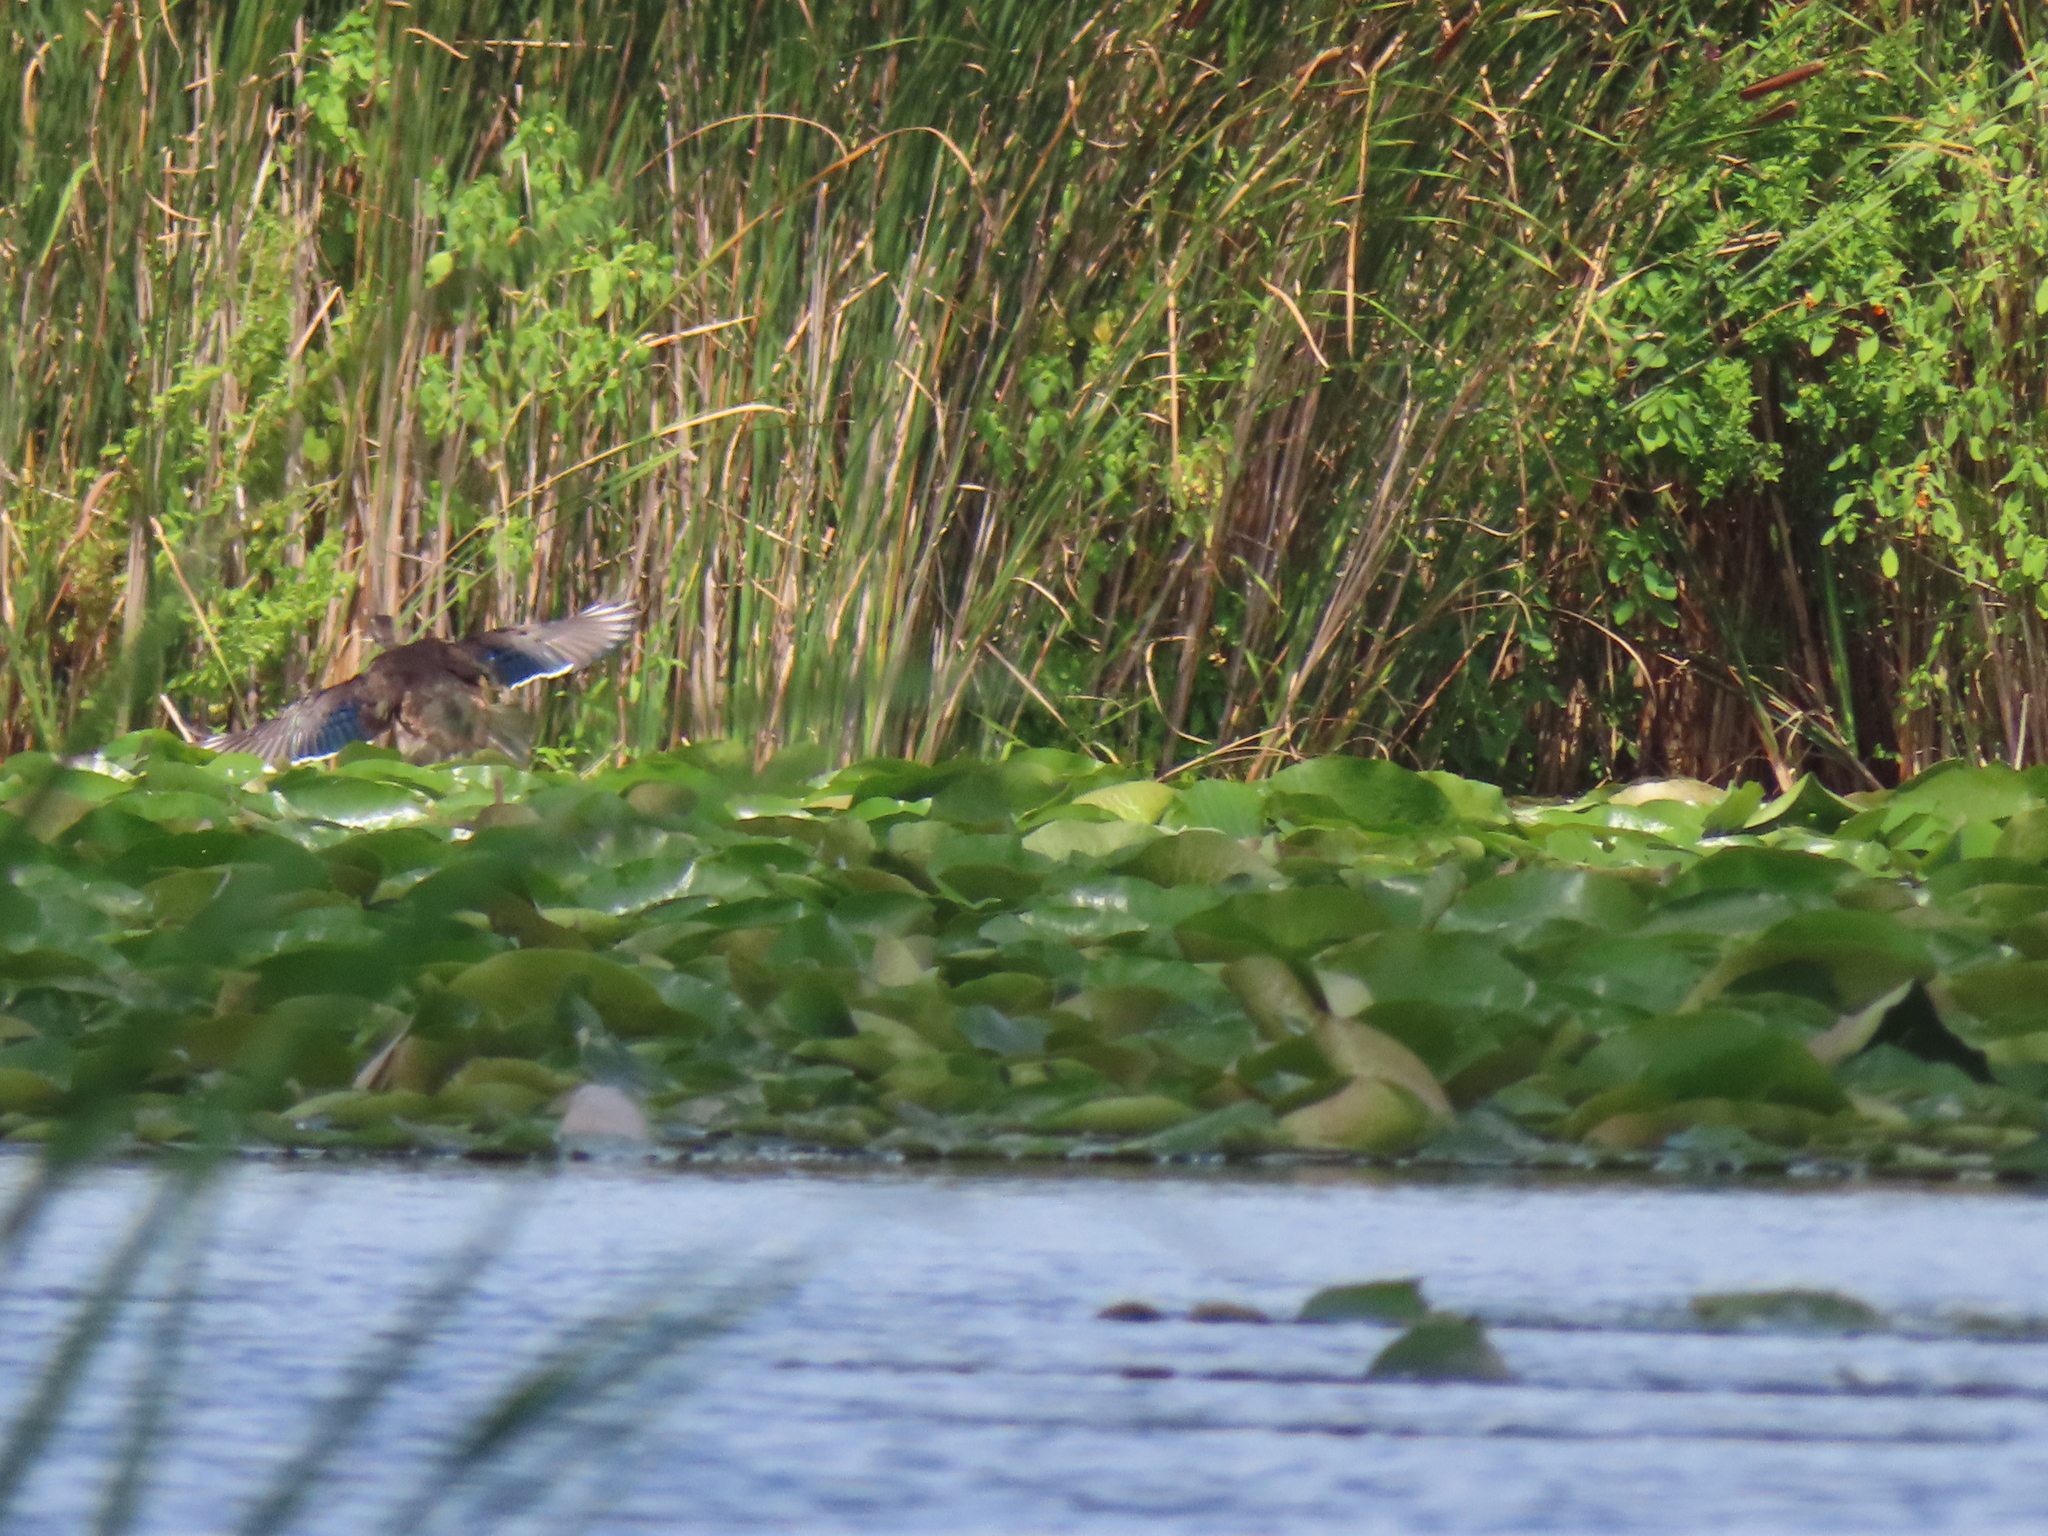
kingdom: Animalia
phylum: Chordata
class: Aves
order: Anseriformes
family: Anatidae
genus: Aix
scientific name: Aix sponsa
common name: Wood duck
